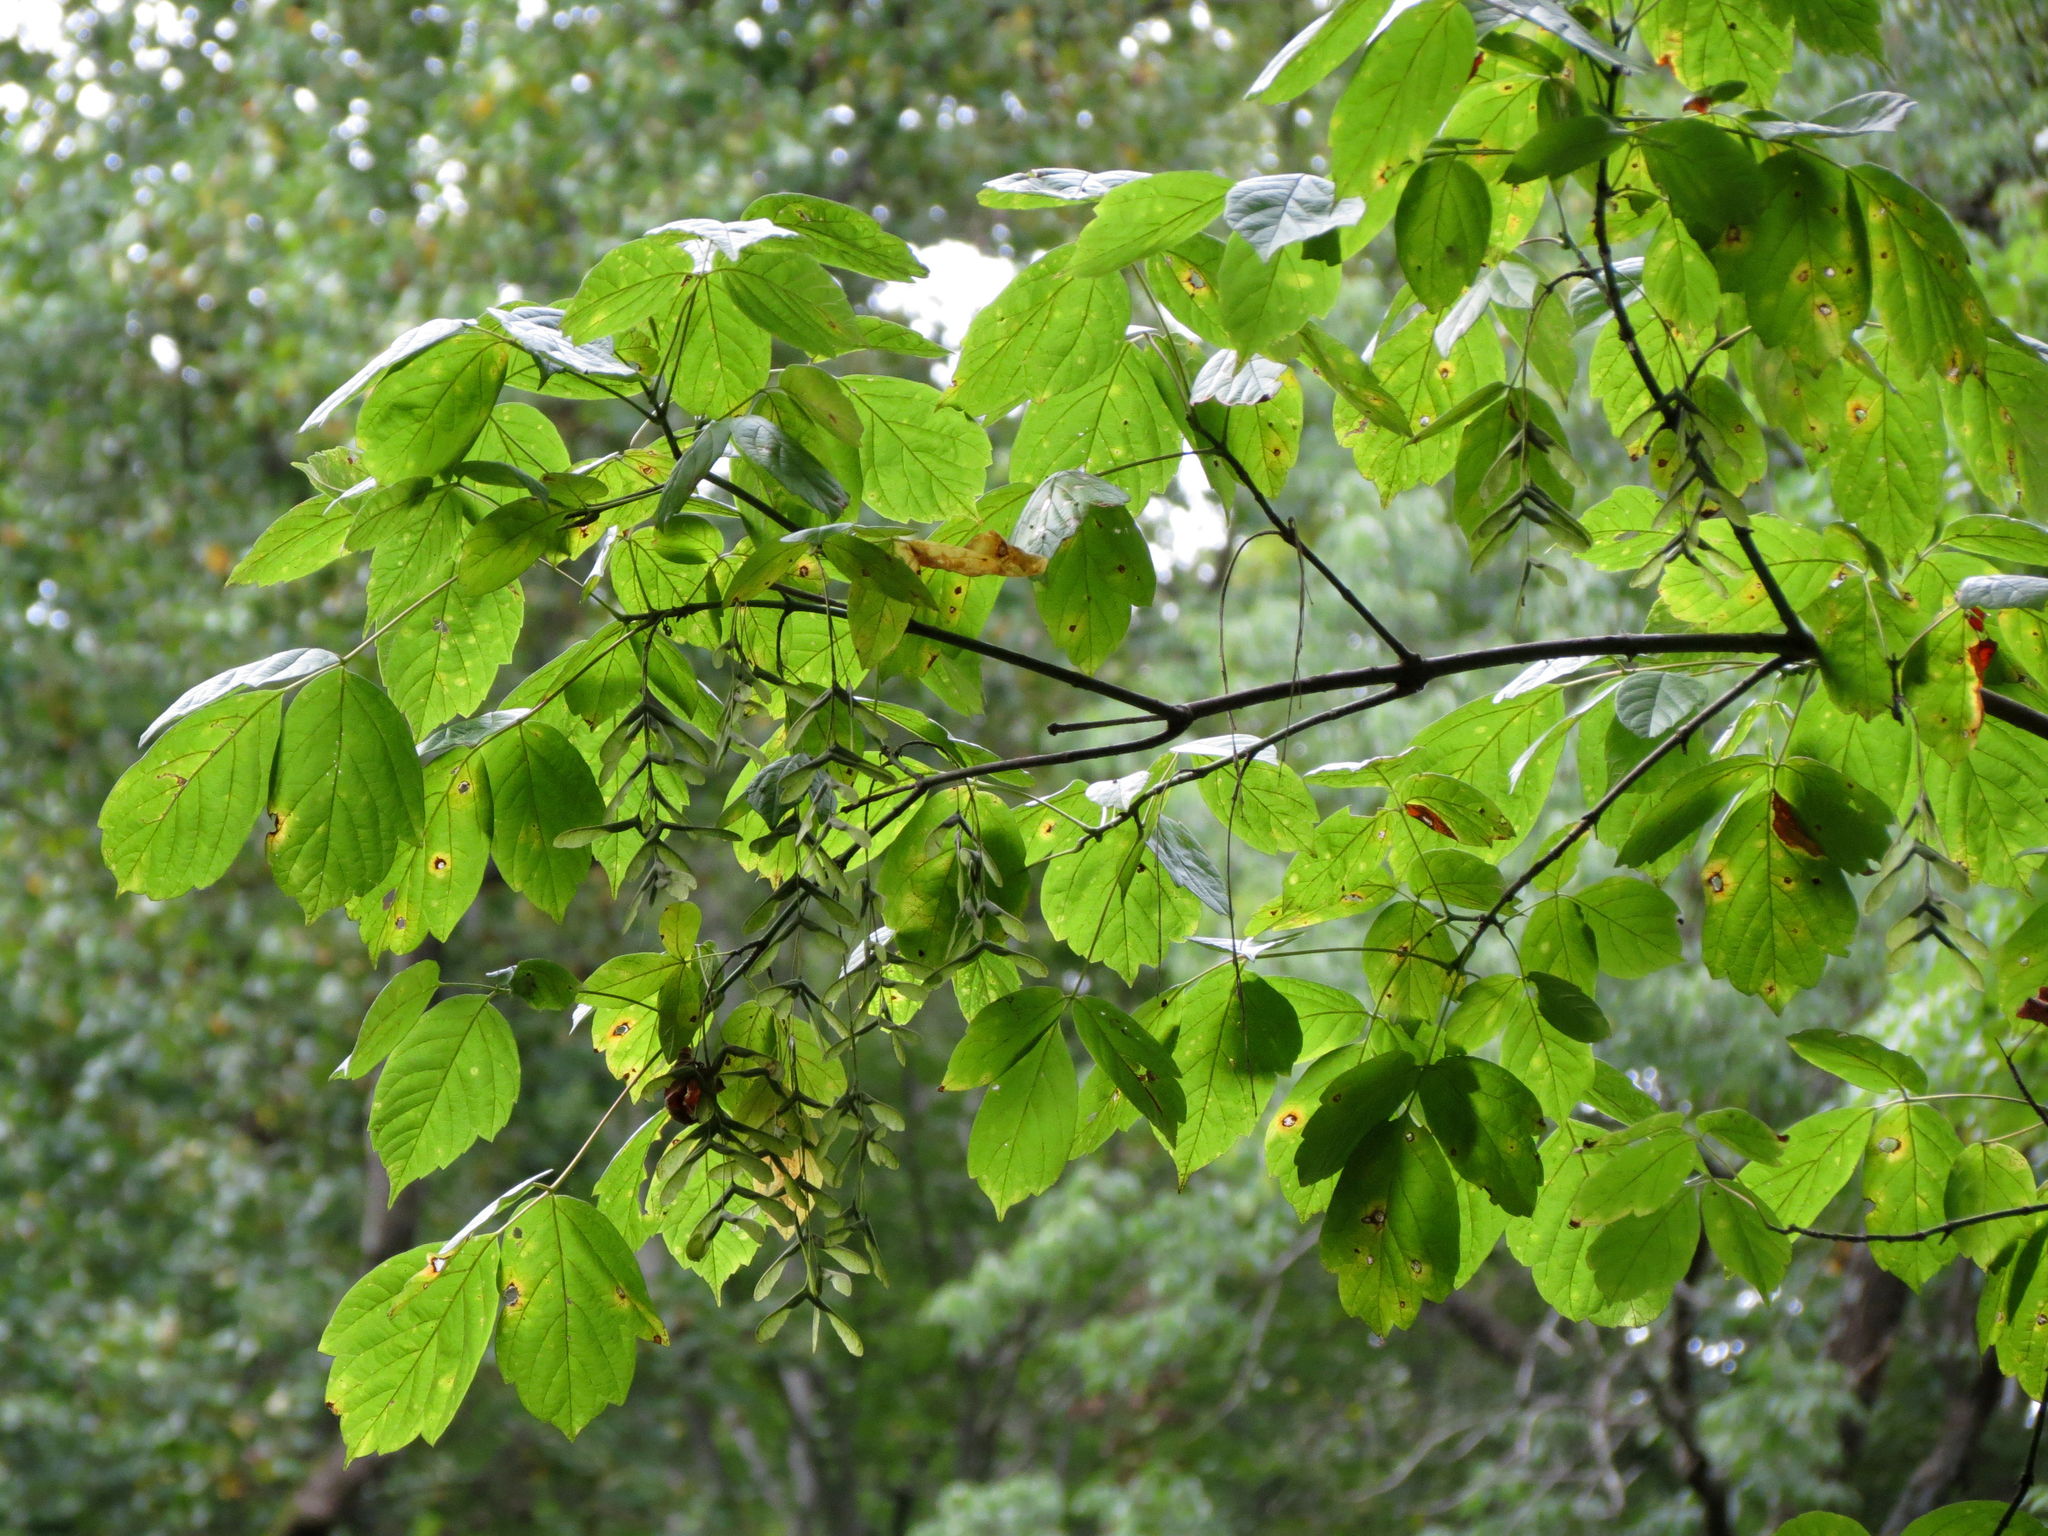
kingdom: Plantae
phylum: Tracheophyta
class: Magnoliopsida
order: Sapindales
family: Sapindaceae
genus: Acer
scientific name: Acer negundo
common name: Ashleaf maple
